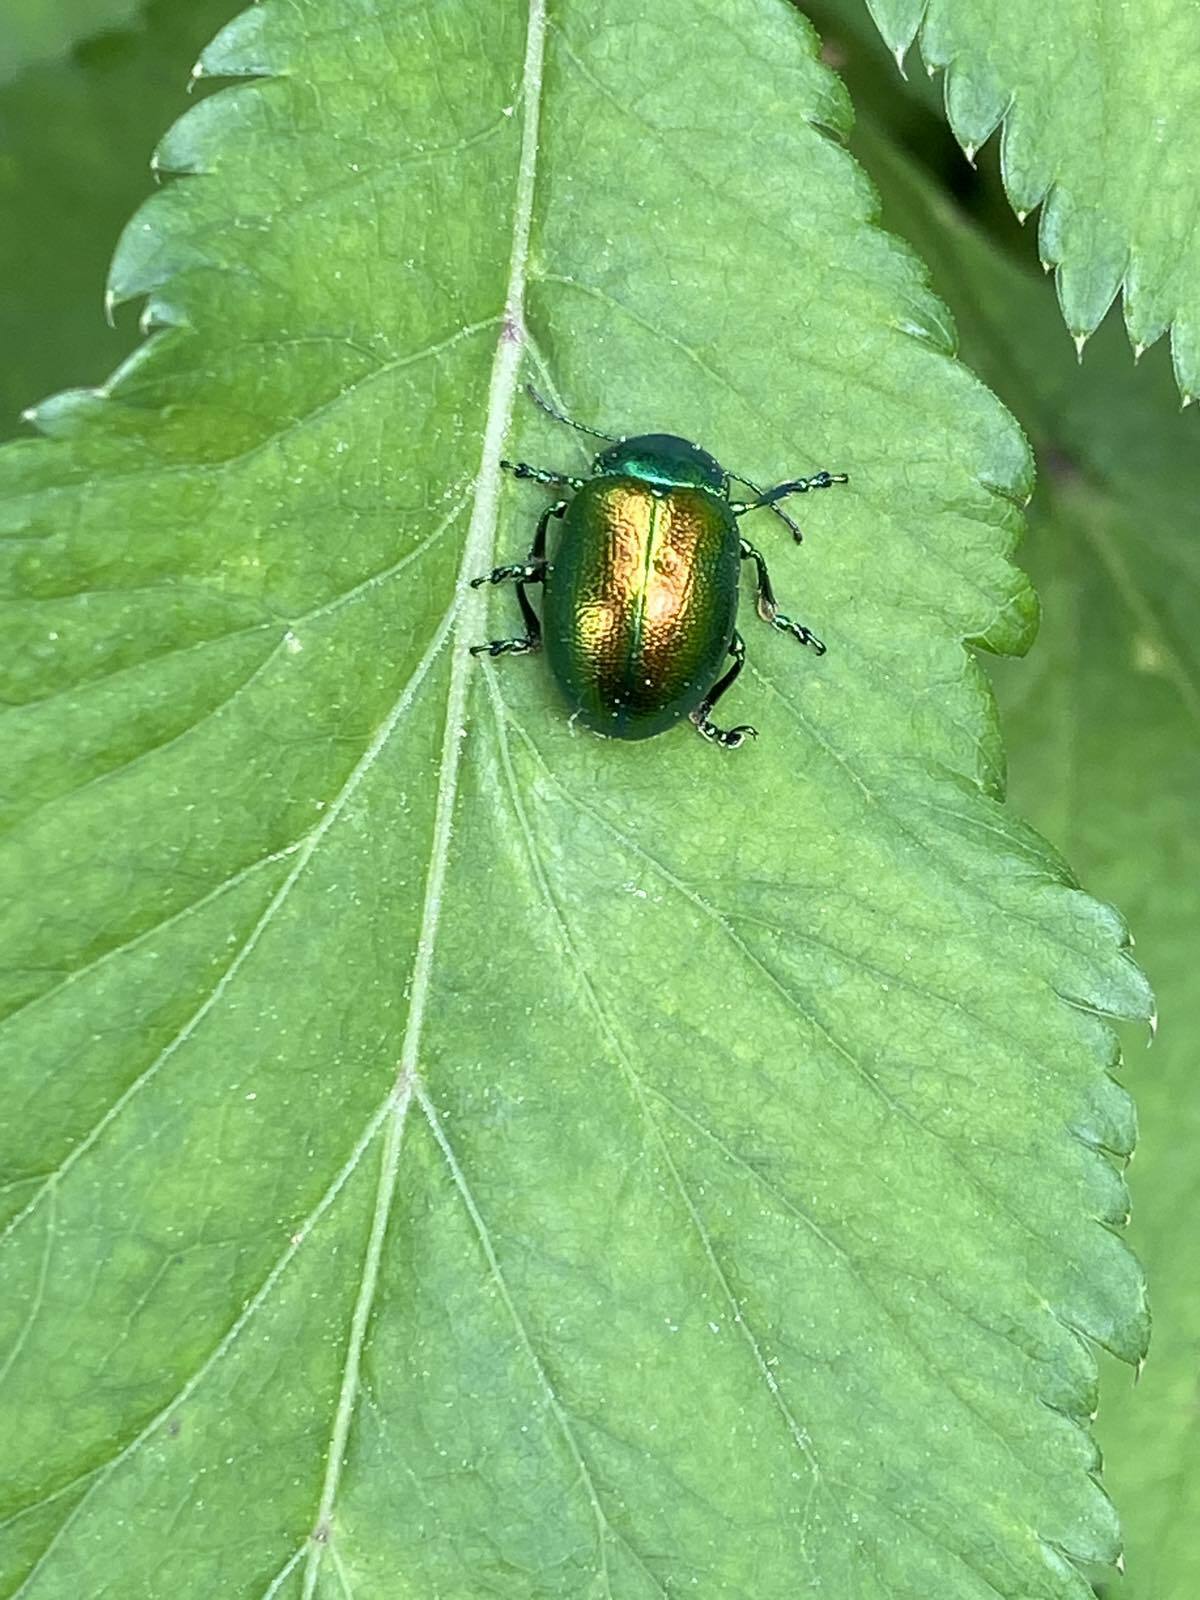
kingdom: Animalia
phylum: Arthropoda
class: Insecta
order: Coleoptera
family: Chrysomelidae
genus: Plagiosterna
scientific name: Plagiosterna aenea
